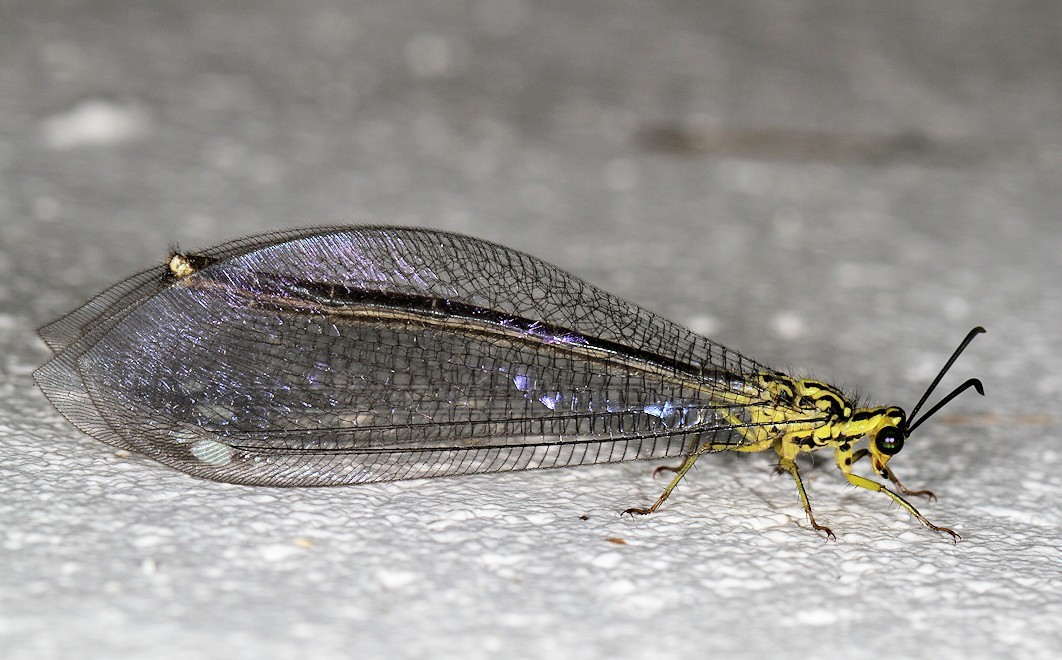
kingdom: Animalia
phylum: Arthropoda
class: Insecta
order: Neuroptera
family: Myrmeleontidae
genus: Hagenomyia
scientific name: Hagenomyia tristis
